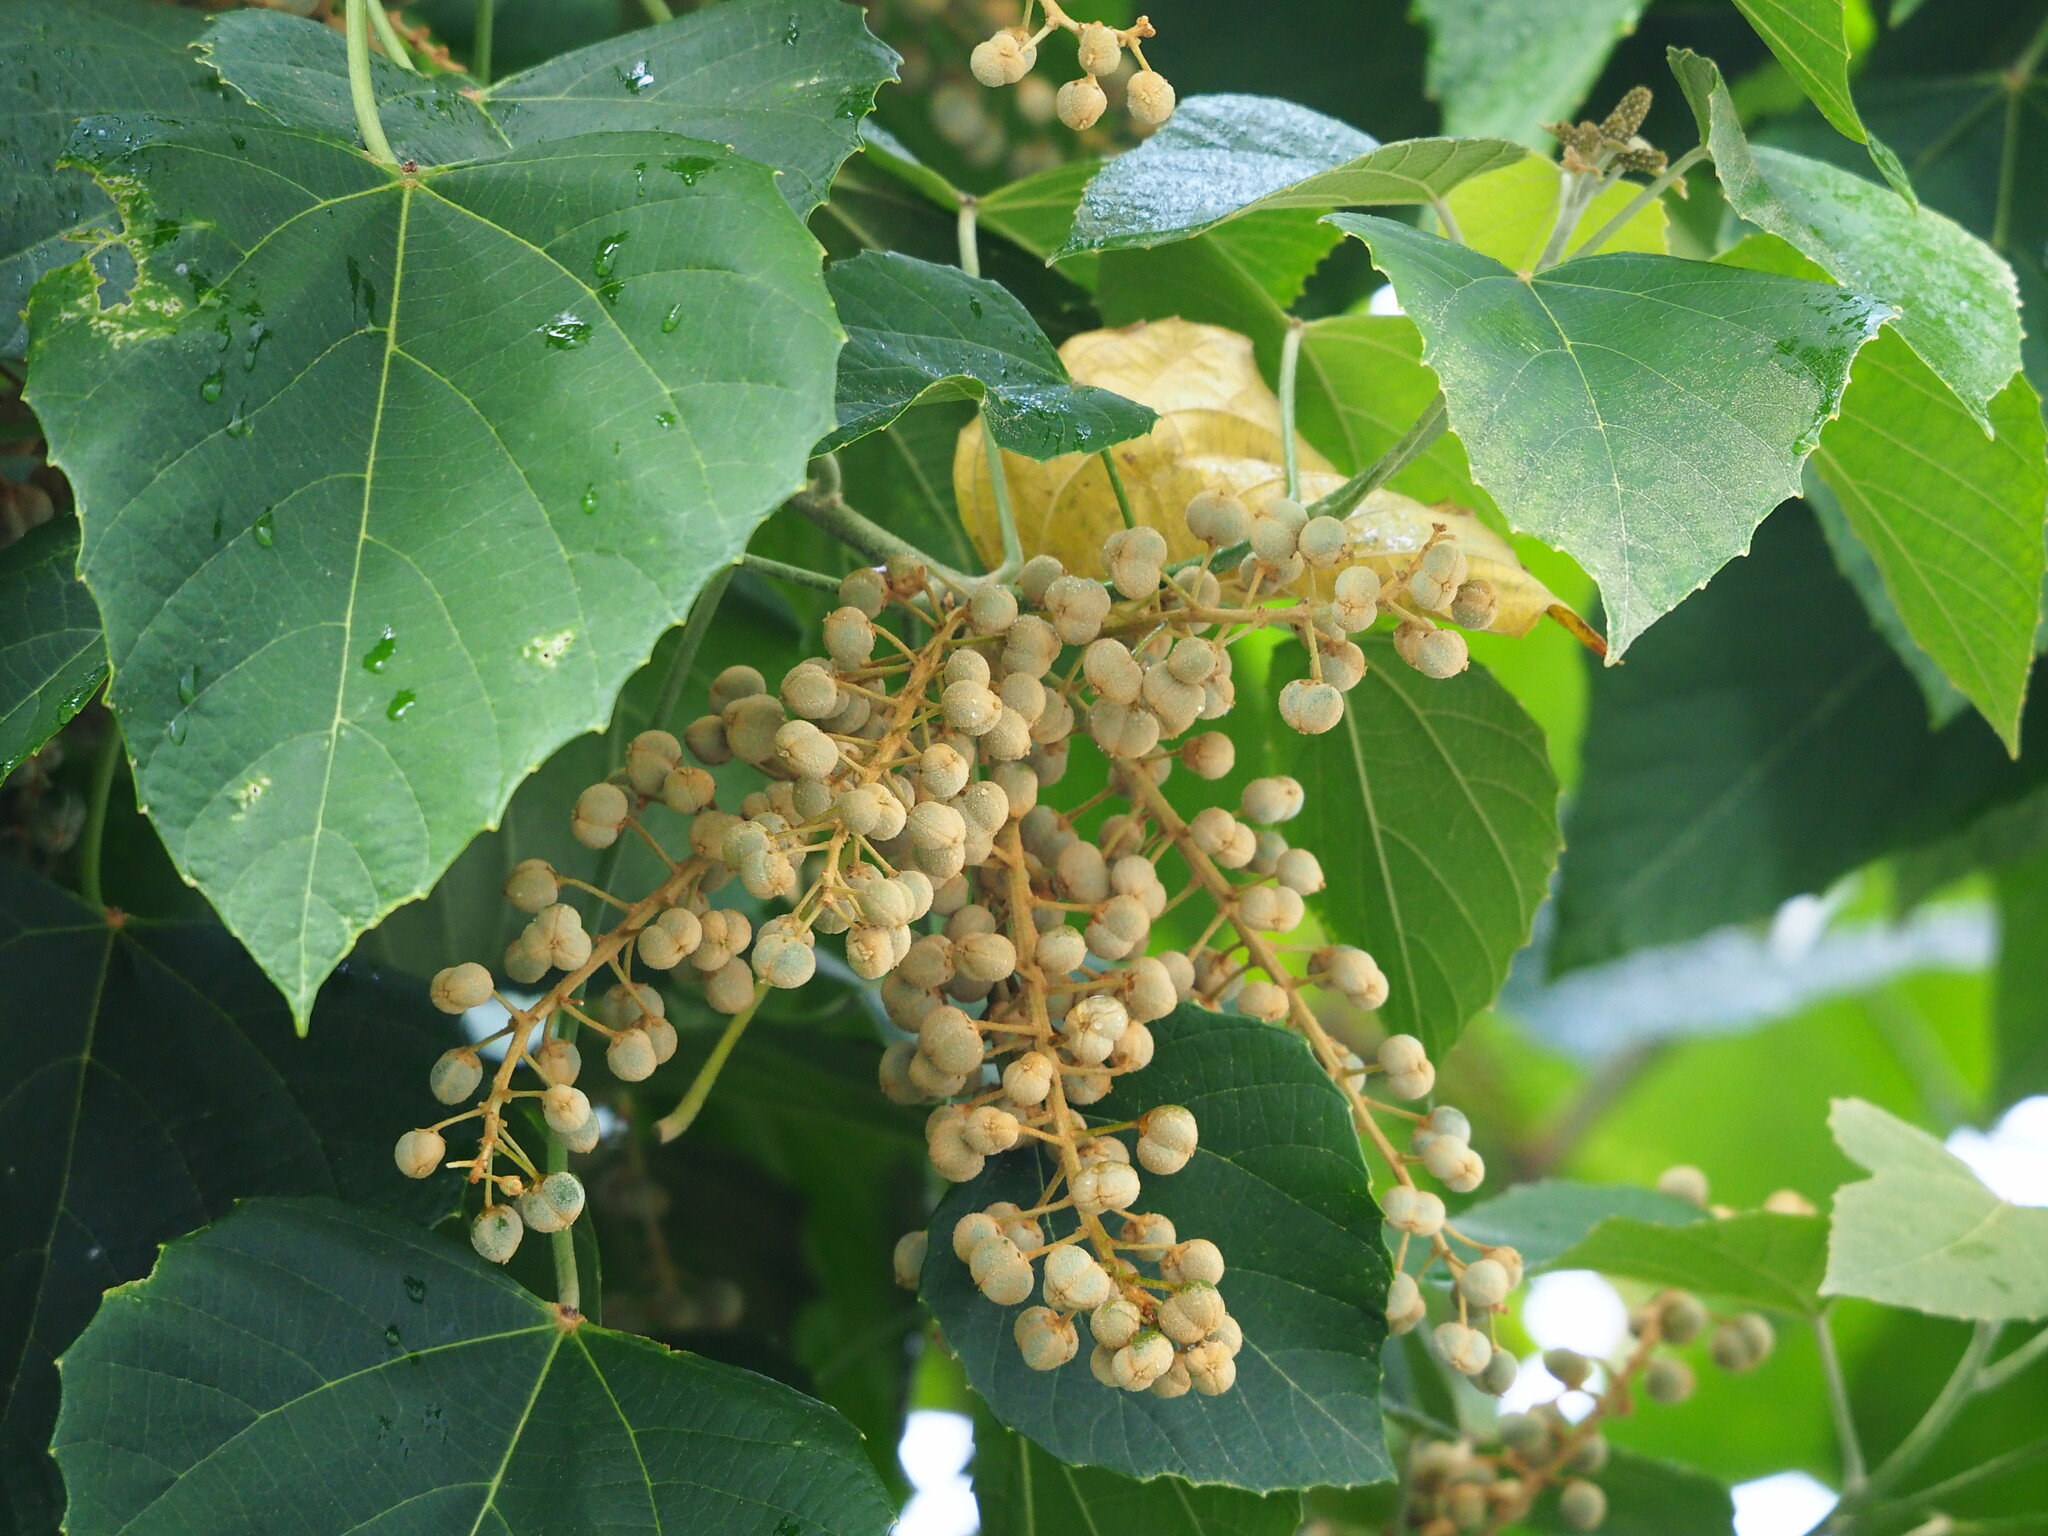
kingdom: Plantae
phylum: Tracheophyta
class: Magnoliopsida
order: Malpighiales
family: Euphorbiaceae
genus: Melanolepis
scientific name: Melanolepis multiglandulosa
